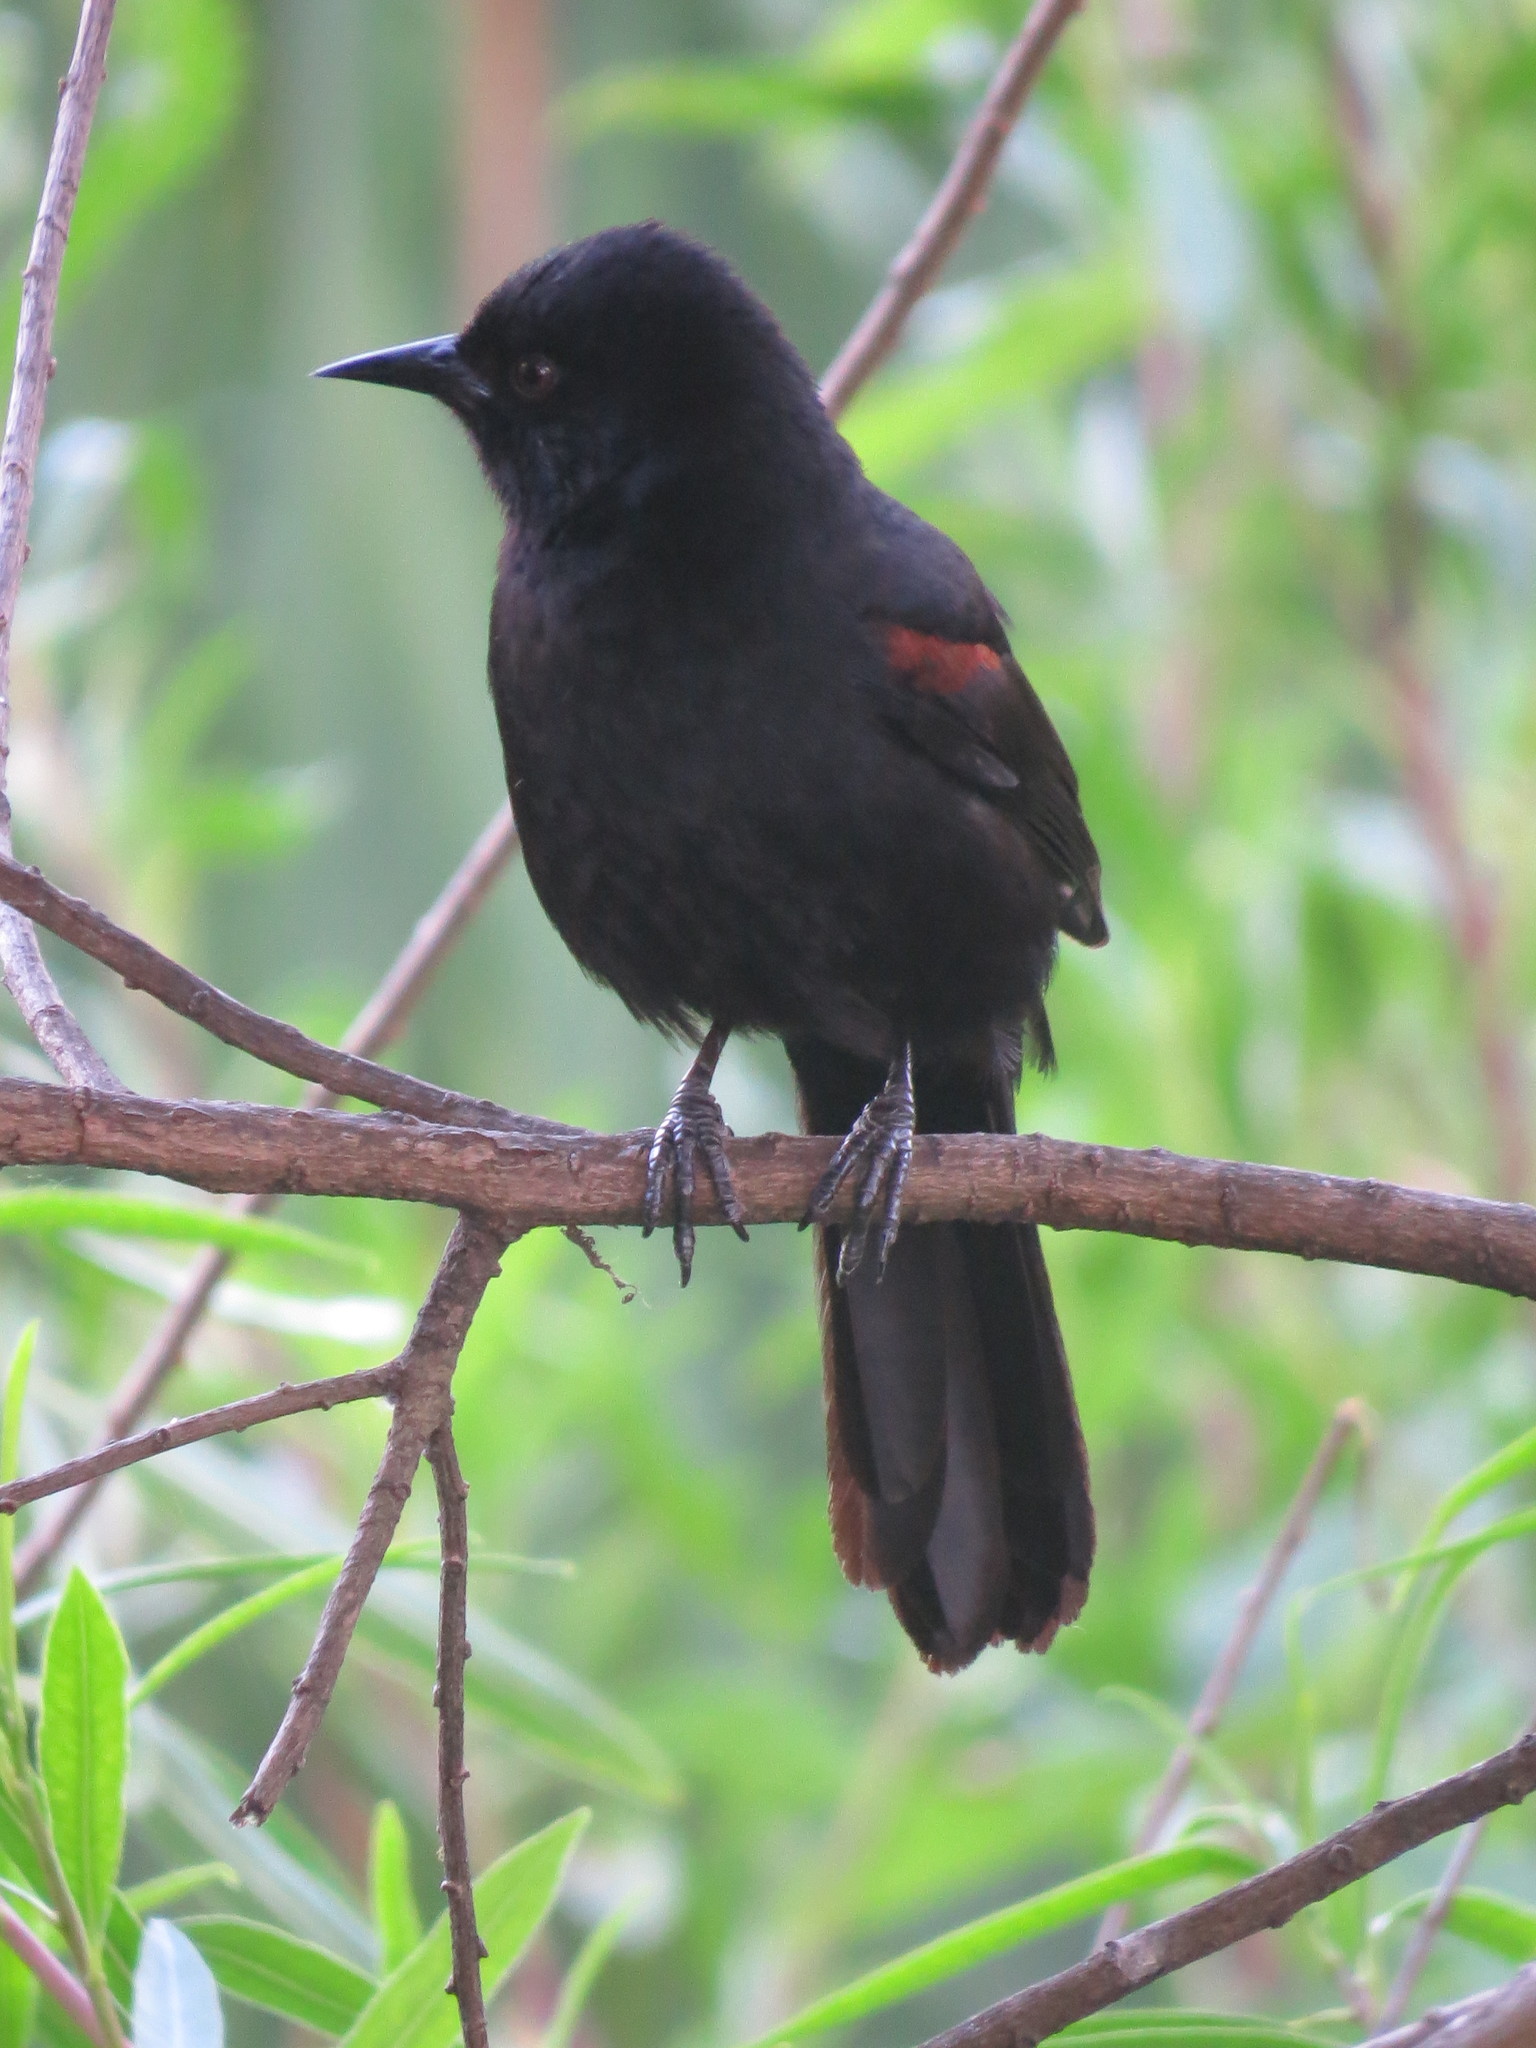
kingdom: Animalia
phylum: Chordata
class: Aves
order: Passeriformes
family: Icteridae
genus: Icterus
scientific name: Icterus cayanensis
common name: Epaulet oriole
